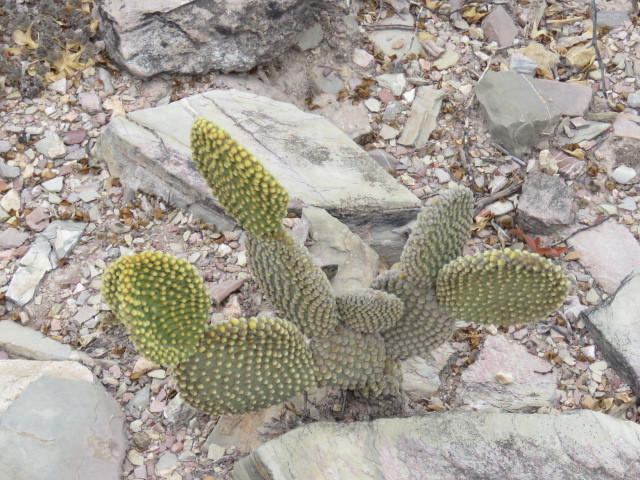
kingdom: Plantae
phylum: Tracheophyta
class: Magnoliopsida
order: Caryophyllales
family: Cactaceae
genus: Opuntia
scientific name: Opuntia microdasys
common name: Angel's-wings
